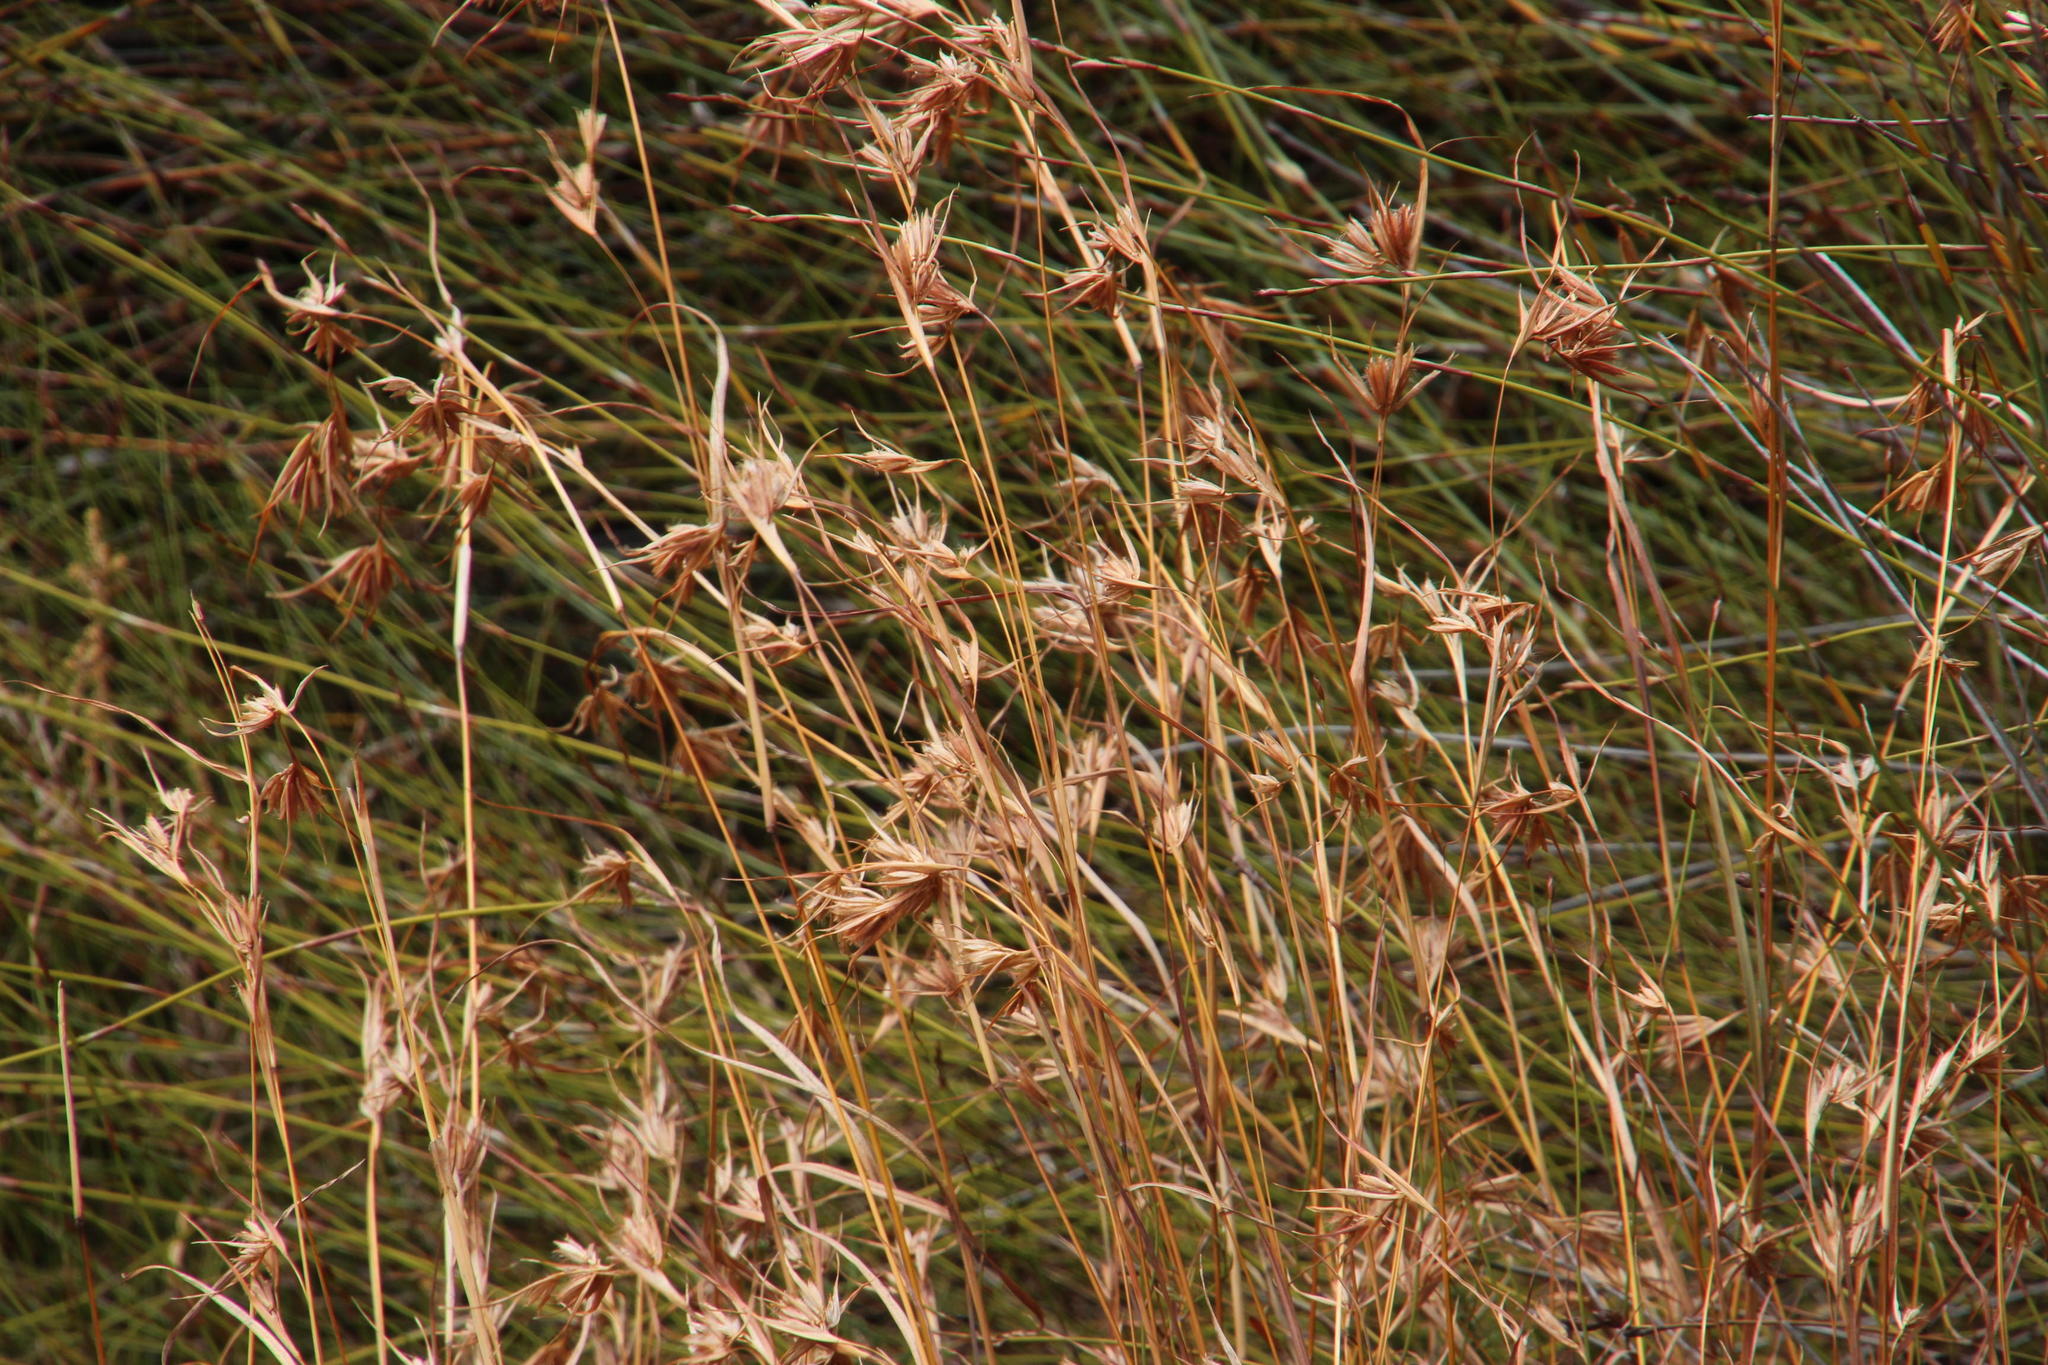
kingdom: Plantae
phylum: Tracheophyta
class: Liliopsida
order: Poales
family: Poaceae
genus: Themeda
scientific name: Themeda triandra
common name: Kangaroo grass
